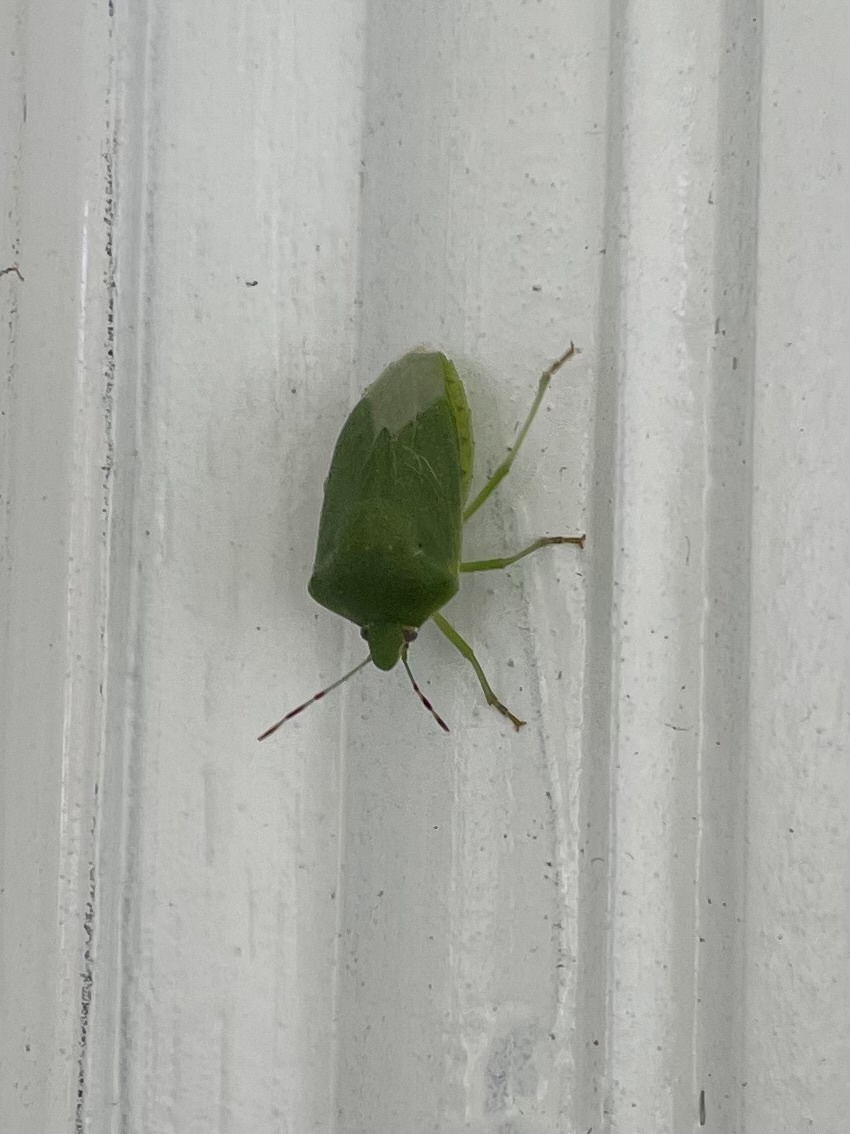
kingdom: Animalia
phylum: Arthropoda
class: Insecta
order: Hemiptera
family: Pentatomidae
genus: Nezara
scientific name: Nezara viridula
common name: Southern green stink bug
